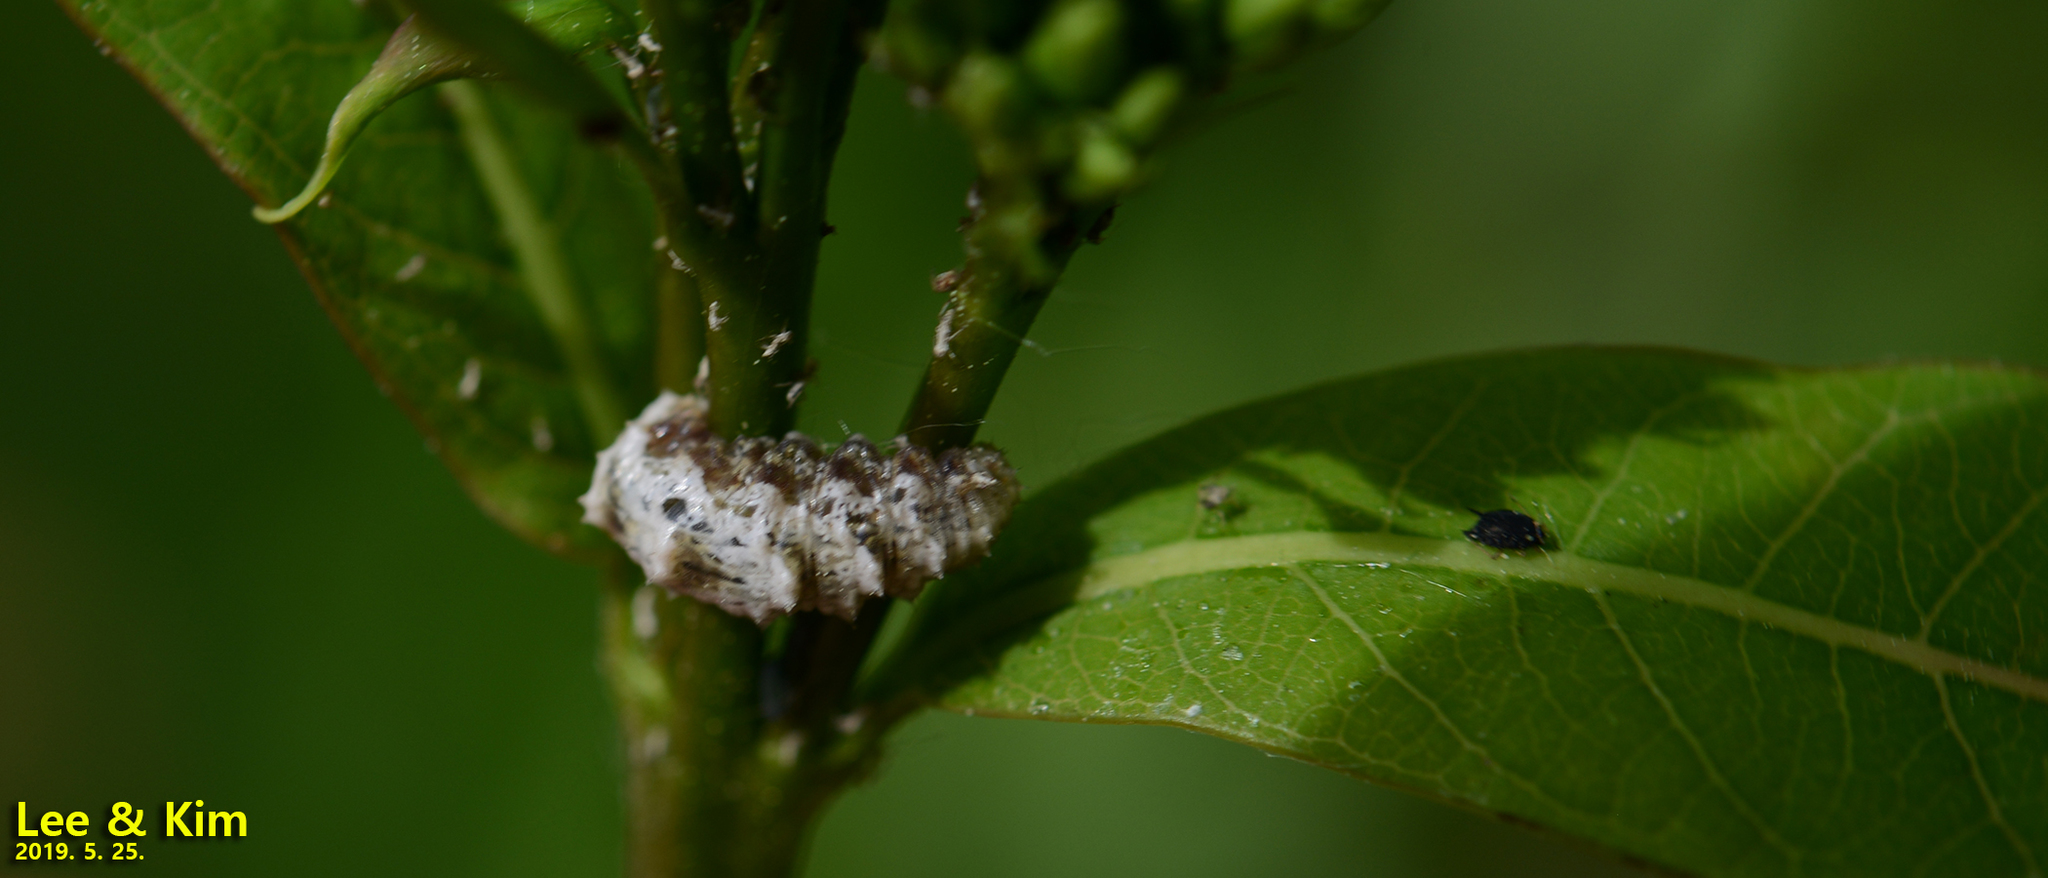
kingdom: Animalia
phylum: Arthropoda
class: Insecta
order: Lepidoptera
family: Geometridae
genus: Apochima
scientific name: Apochima juglansiaria
